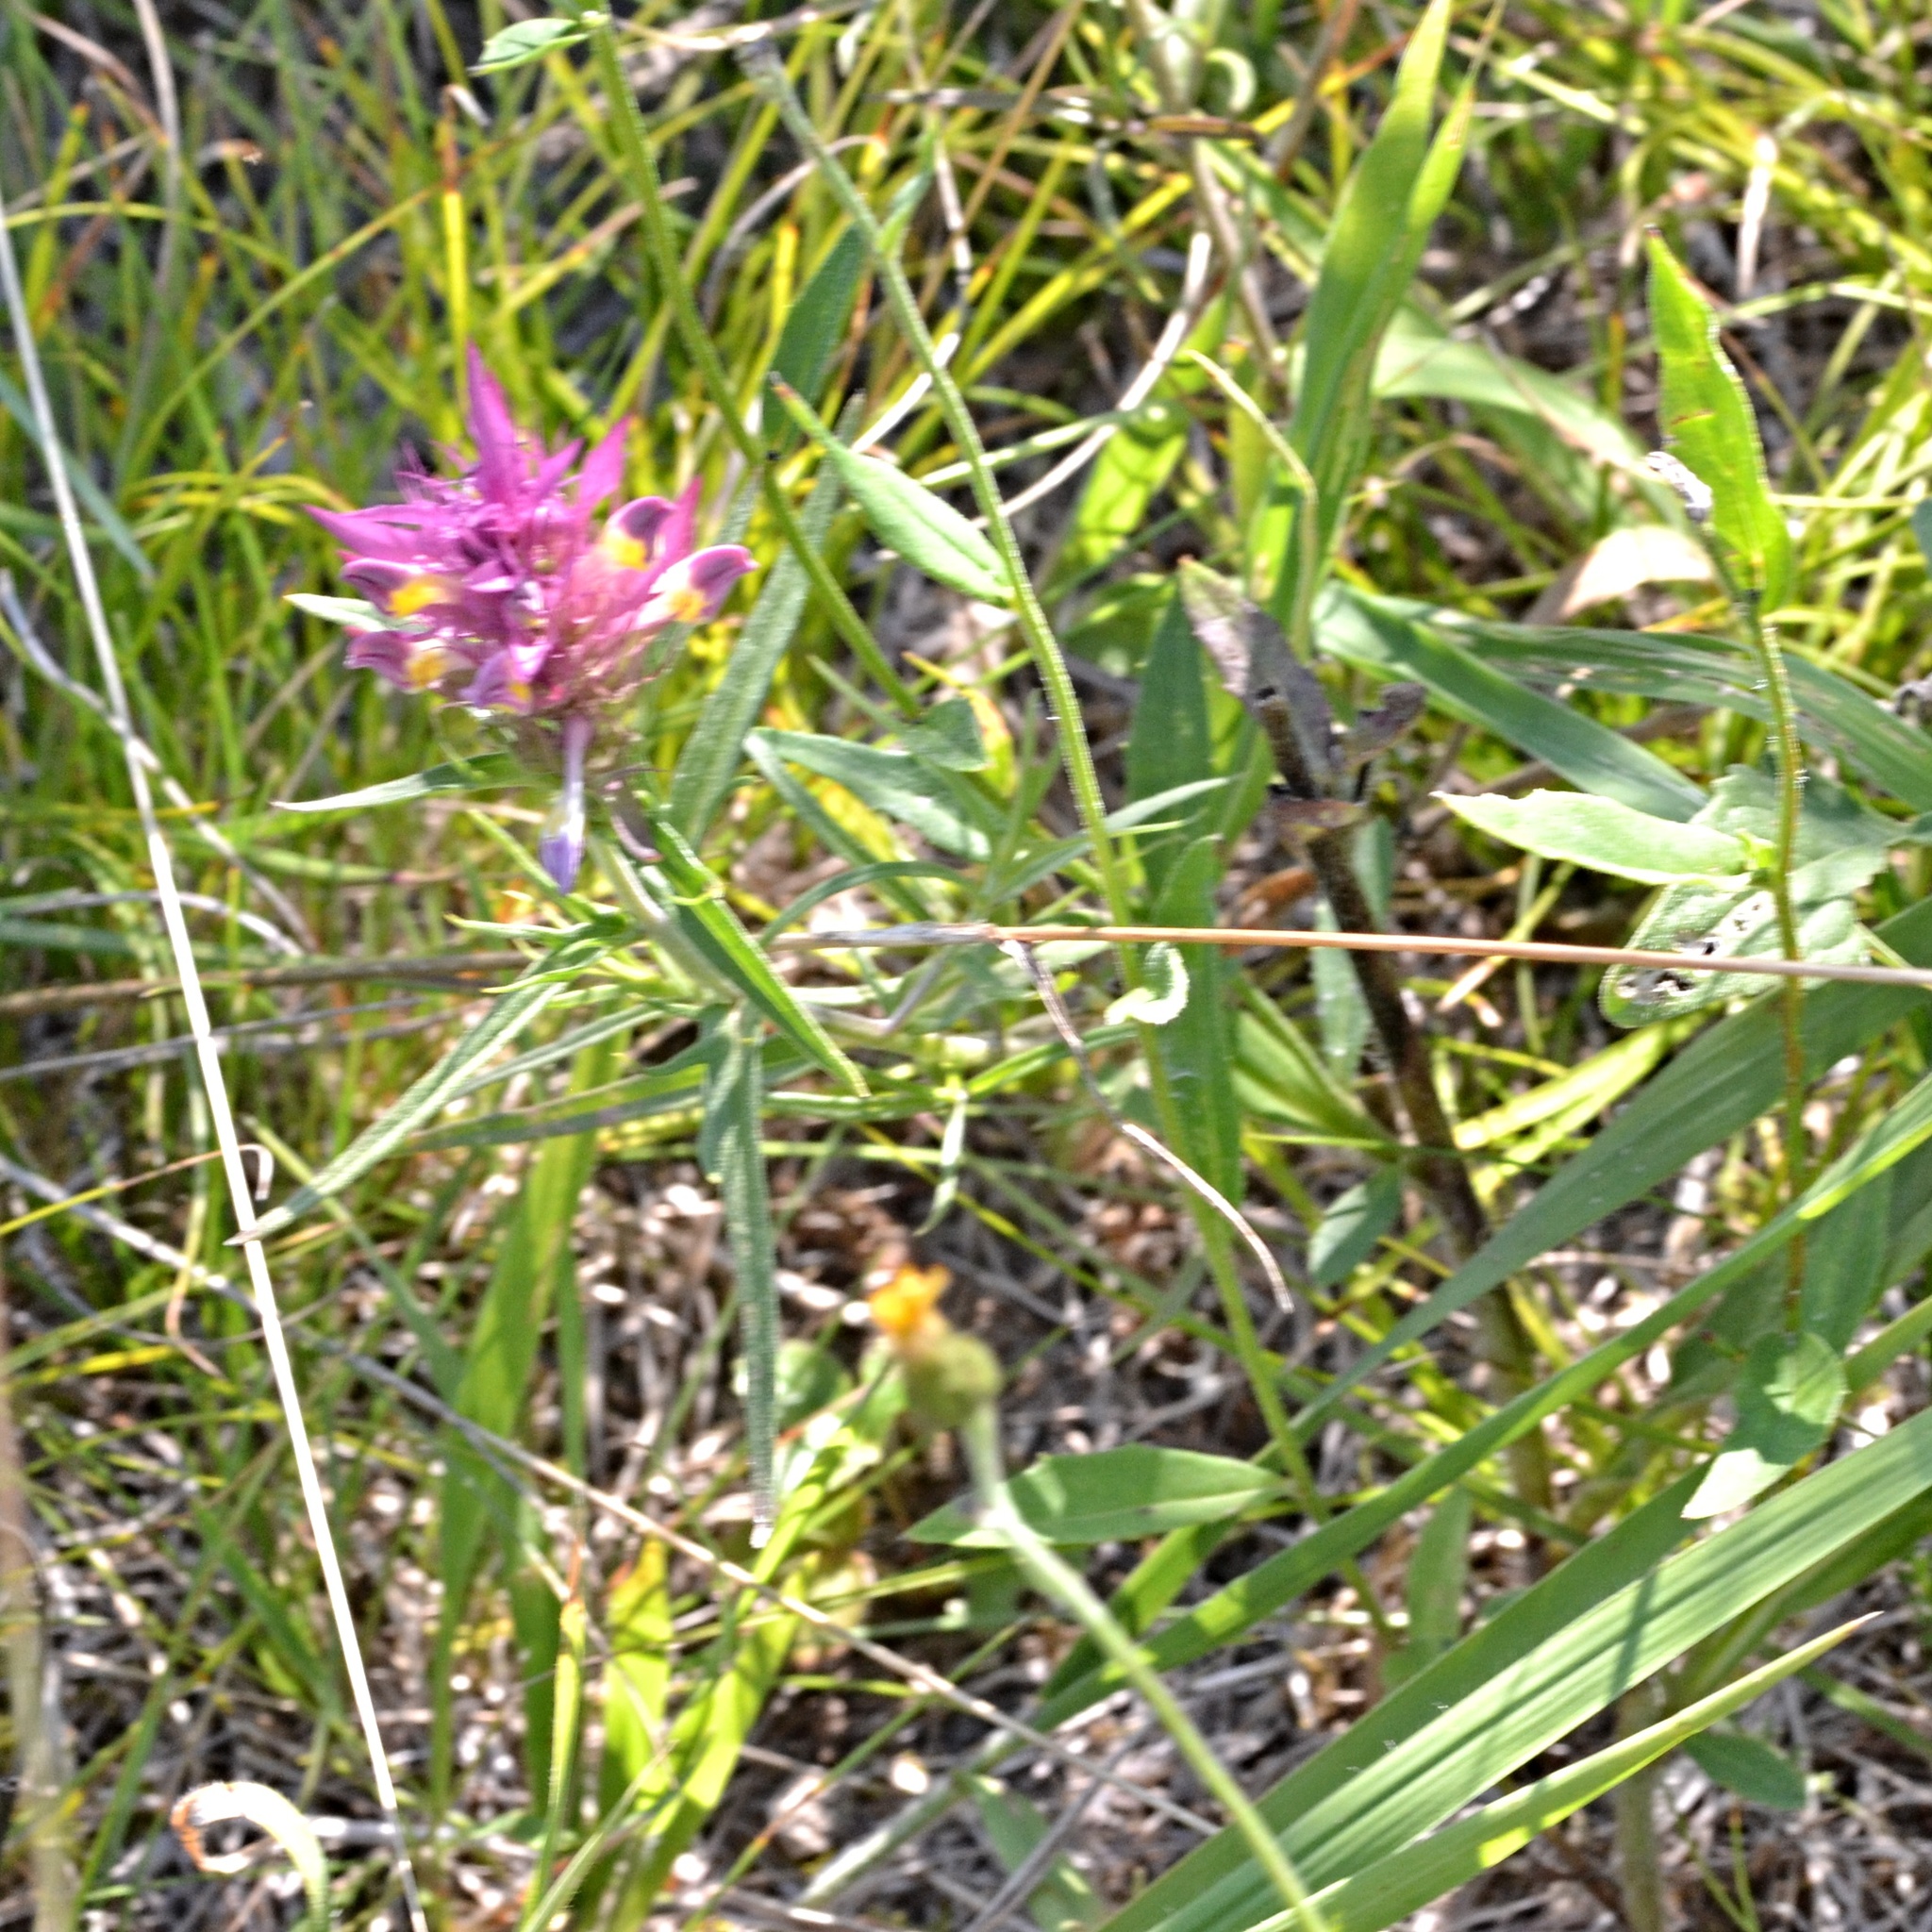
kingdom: Plantae
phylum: Tracheophyta
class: Magnoliopsida
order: Lamiales
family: Orobanchaceae
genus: Melampyrum
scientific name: Melampyrum arvense
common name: Field cow-wheat
